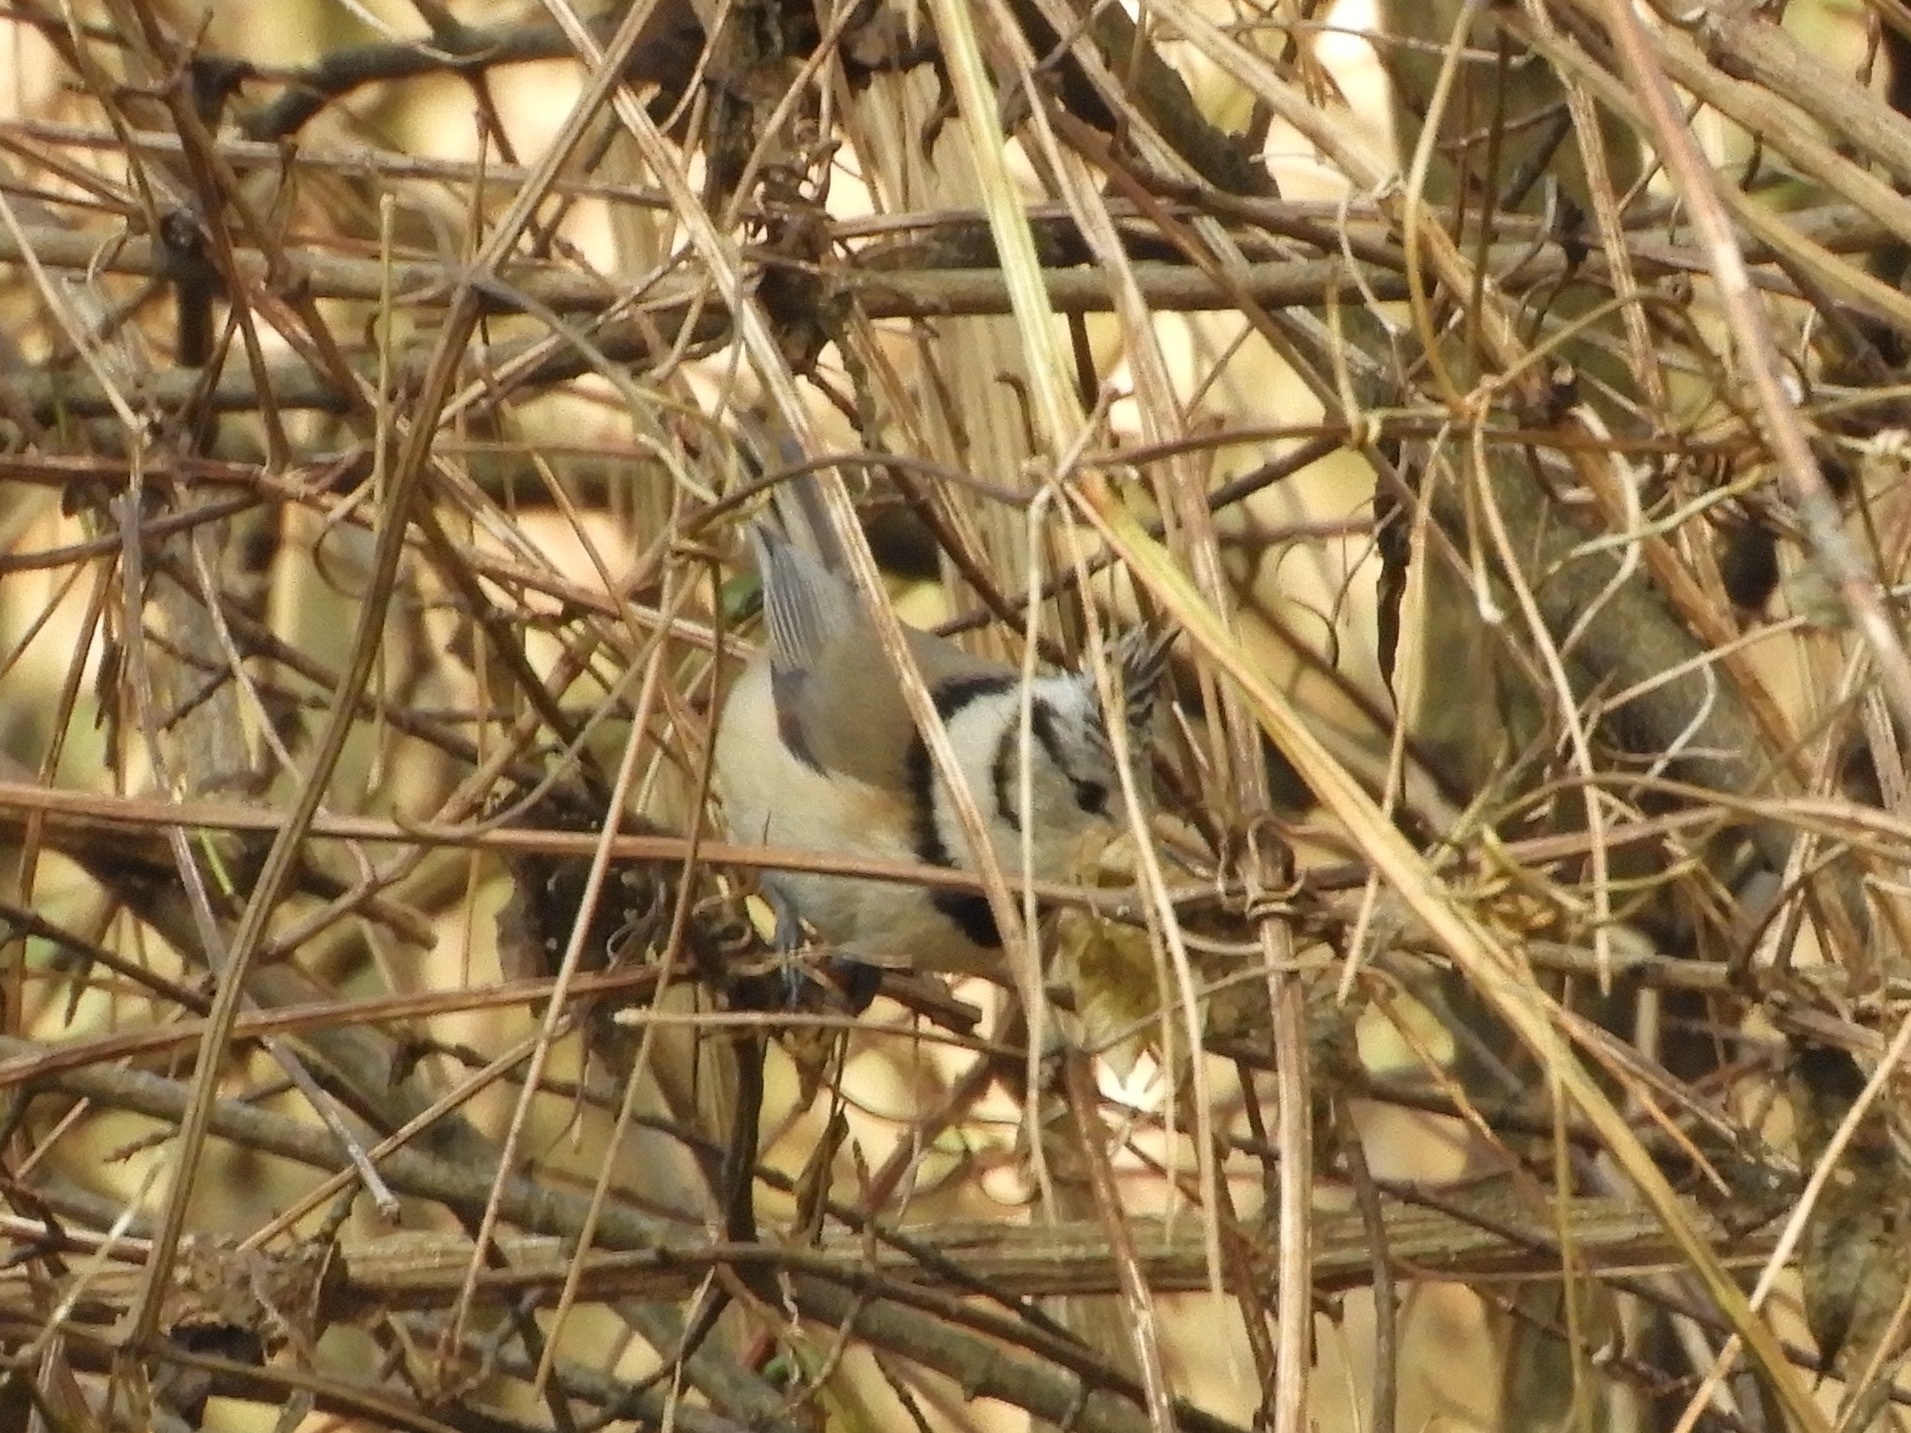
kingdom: Animalia
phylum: Chordata
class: Aves
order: Passeriformes
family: Paridae
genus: Lophophanes
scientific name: Lophophanes cristatus
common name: European crested tit
